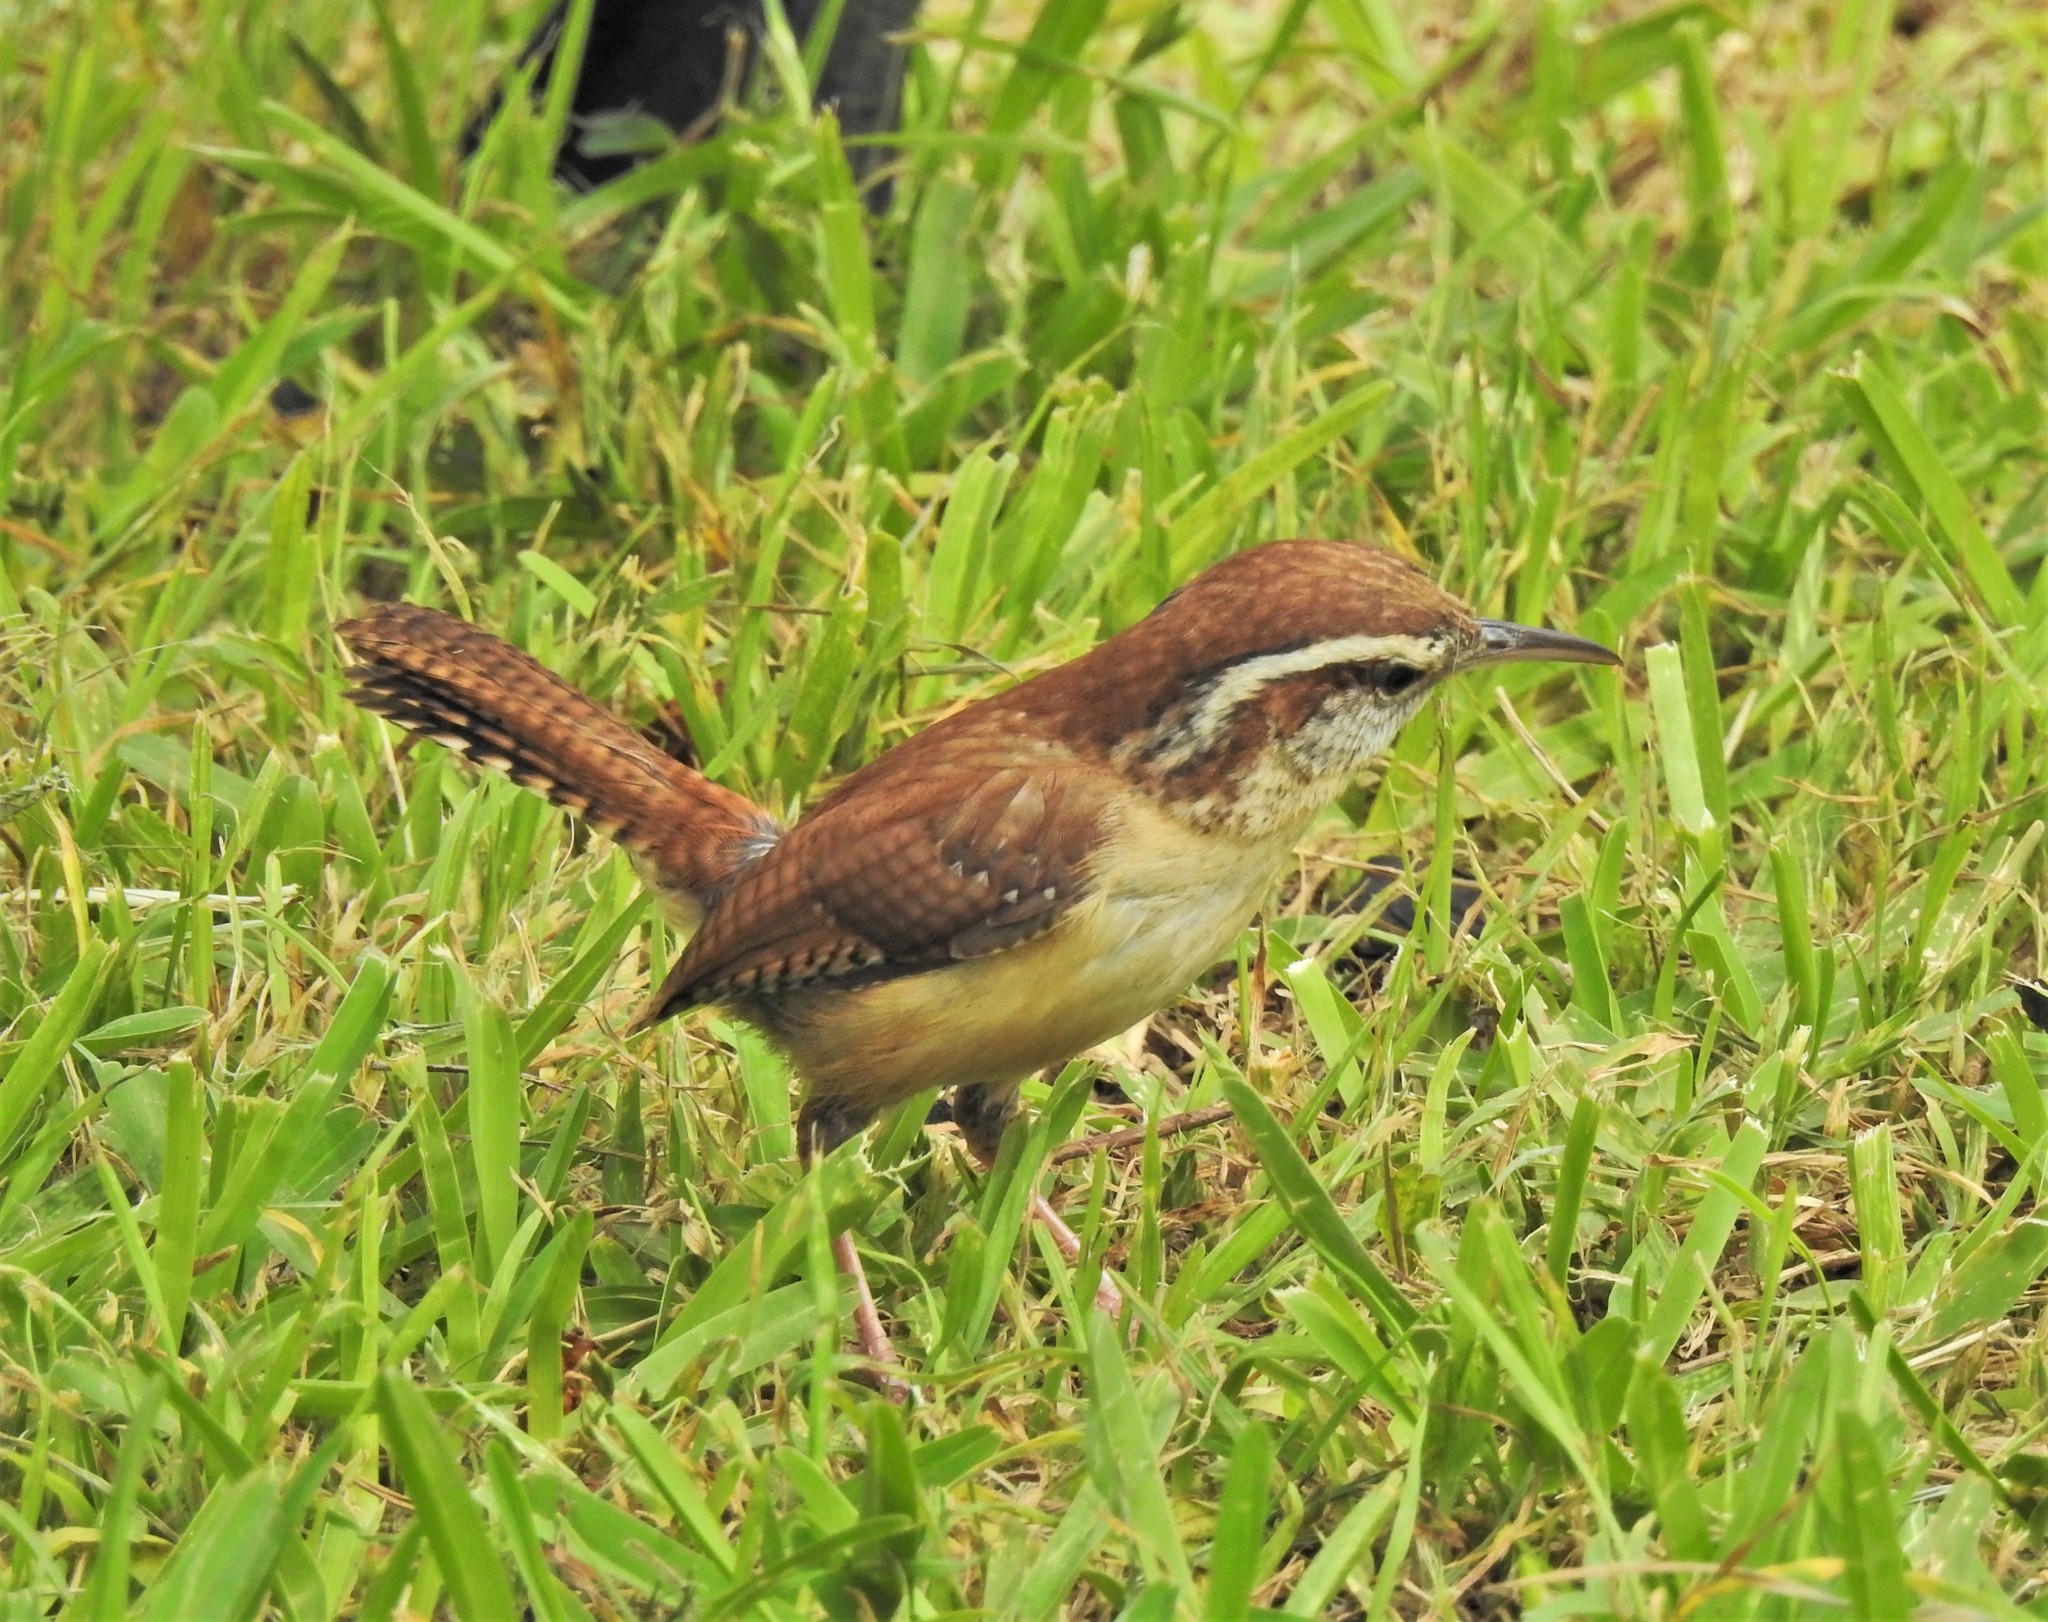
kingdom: Animalia
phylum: Chordata
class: Aves
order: Passeriformes
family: Troglodytidae
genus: Thryothorus
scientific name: Thryothorus ludovicianus
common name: Carolina wren
